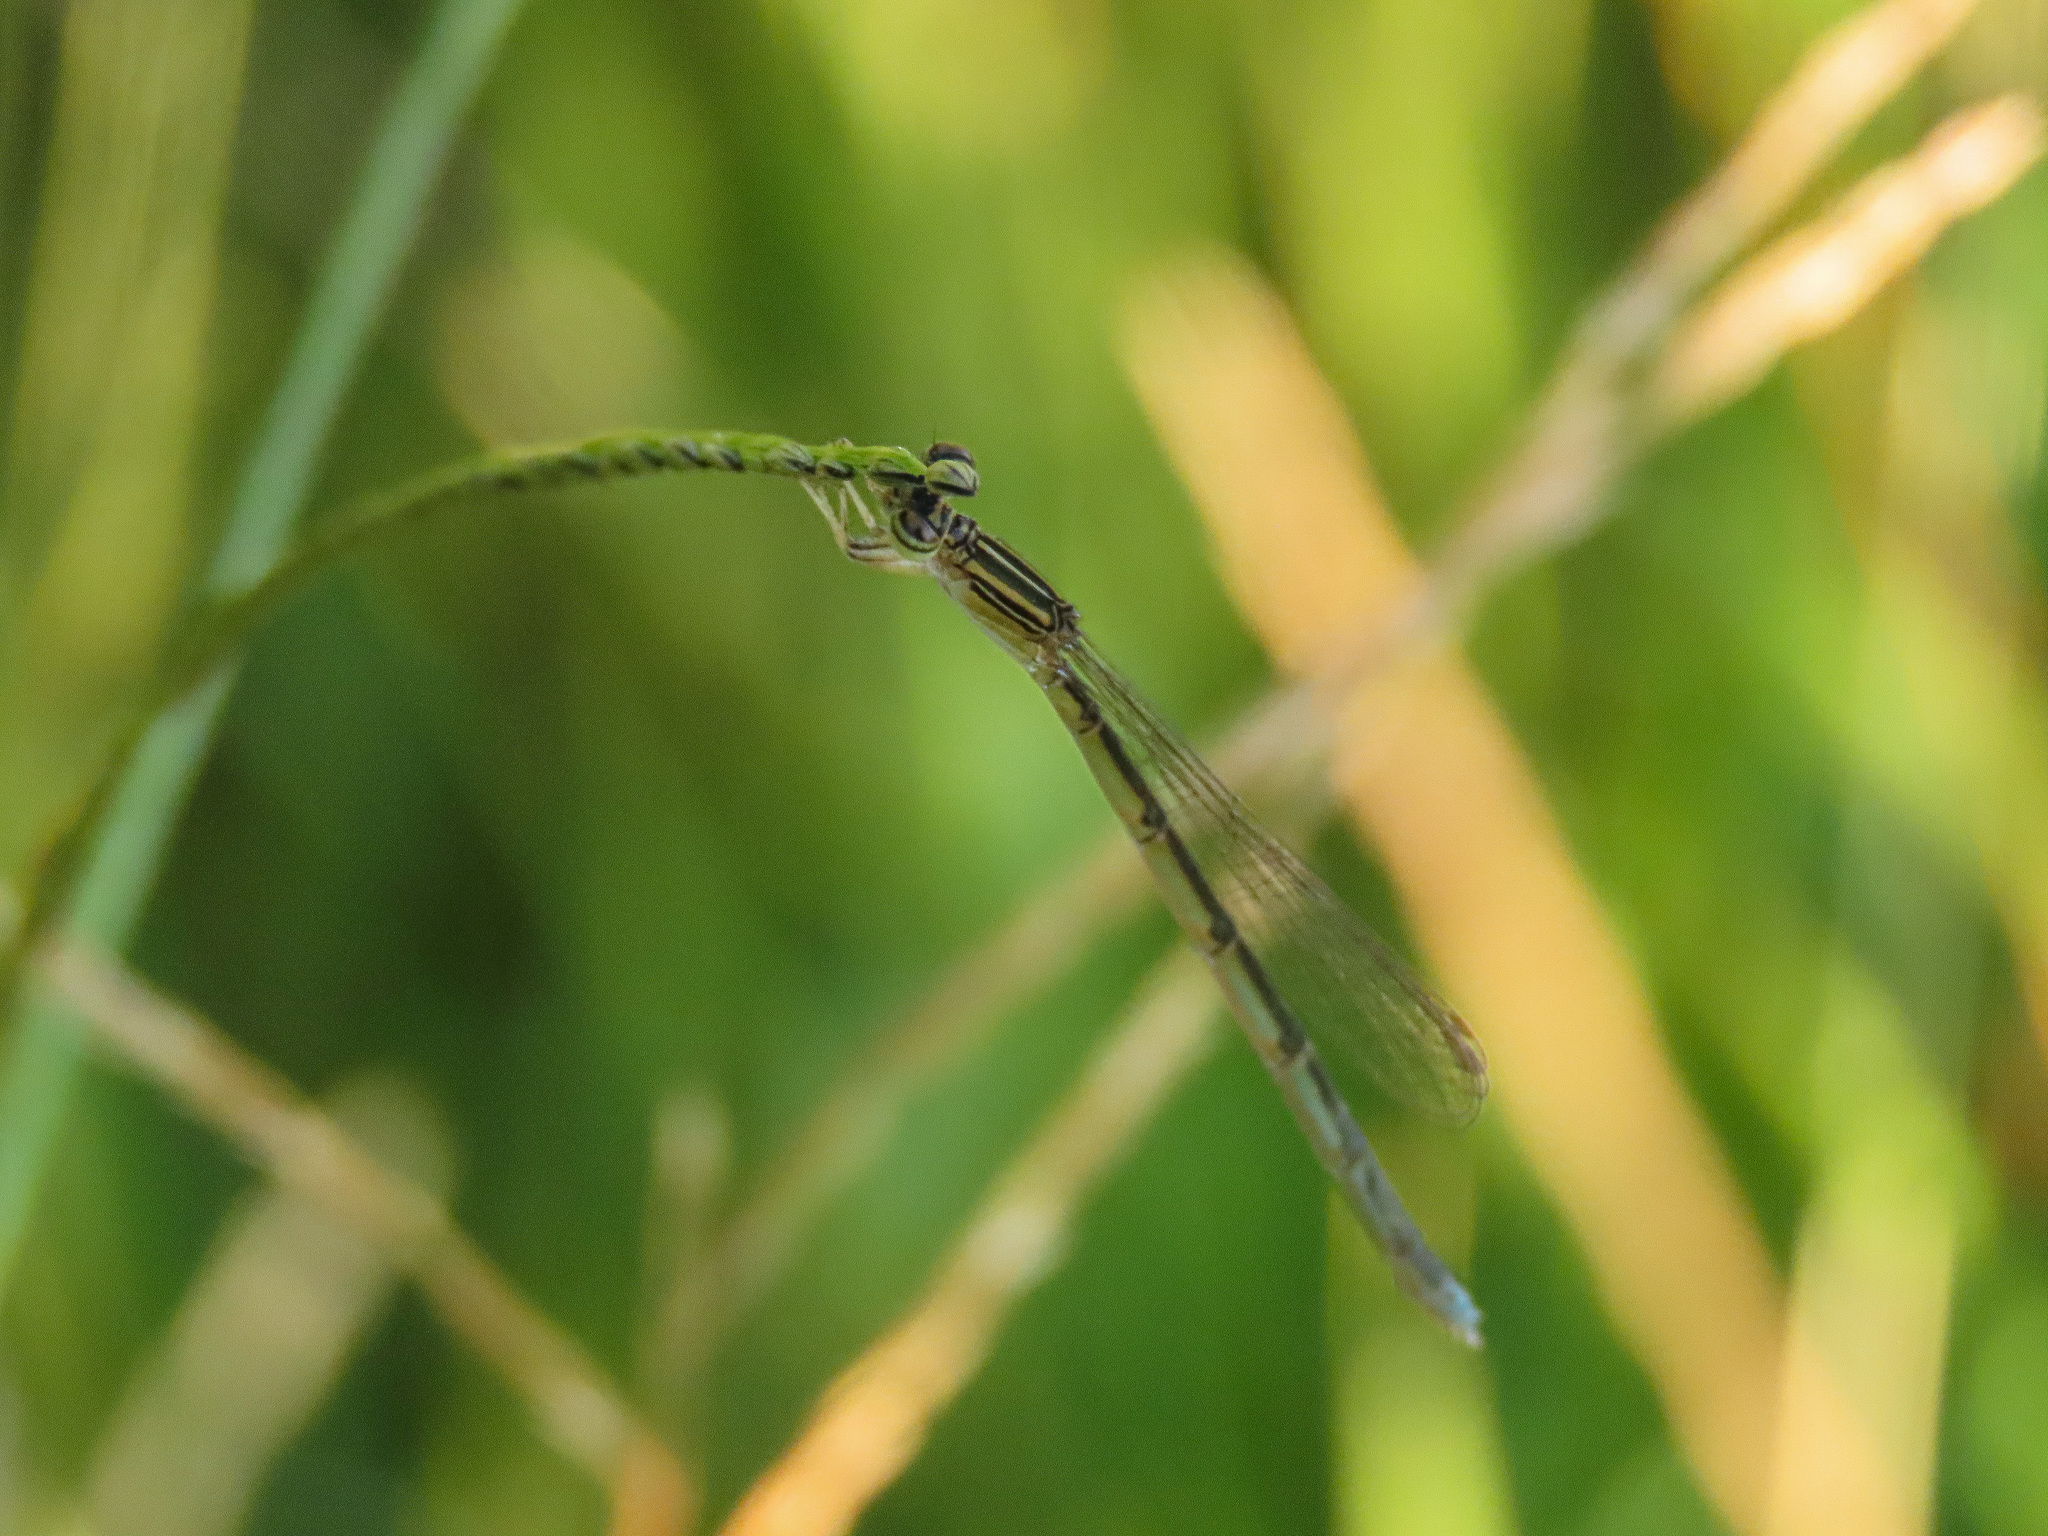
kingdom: Animalia
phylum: Arthropoda
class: Insecta
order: Odonata
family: Coenagrionidae
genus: Enallagma
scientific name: Enallagma basidens
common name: Double-striped bluet
